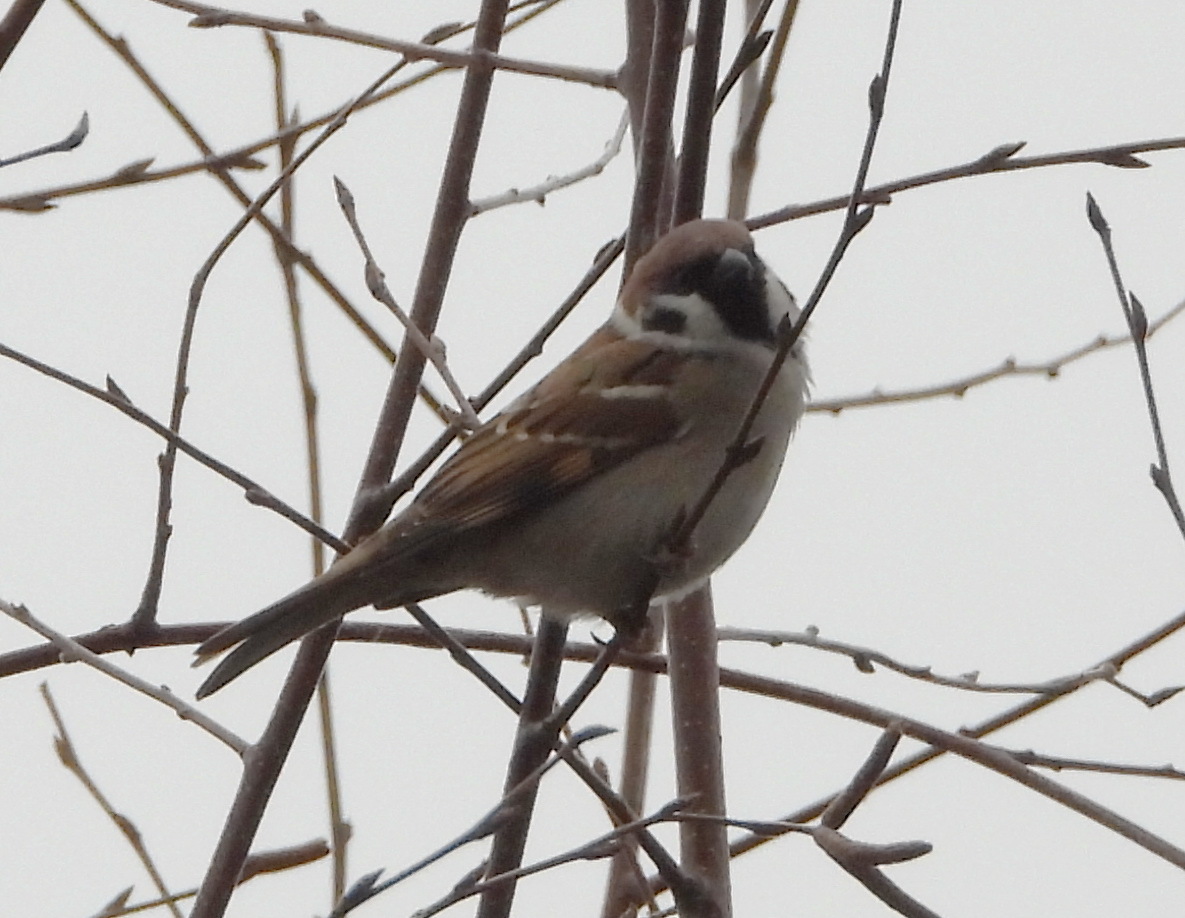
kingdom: Animalia
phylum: Chordata
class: Aves
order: Passeriformes
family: Passeridae
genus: Passer
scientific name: Passer montanus
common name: Eurasian tree sparrow
